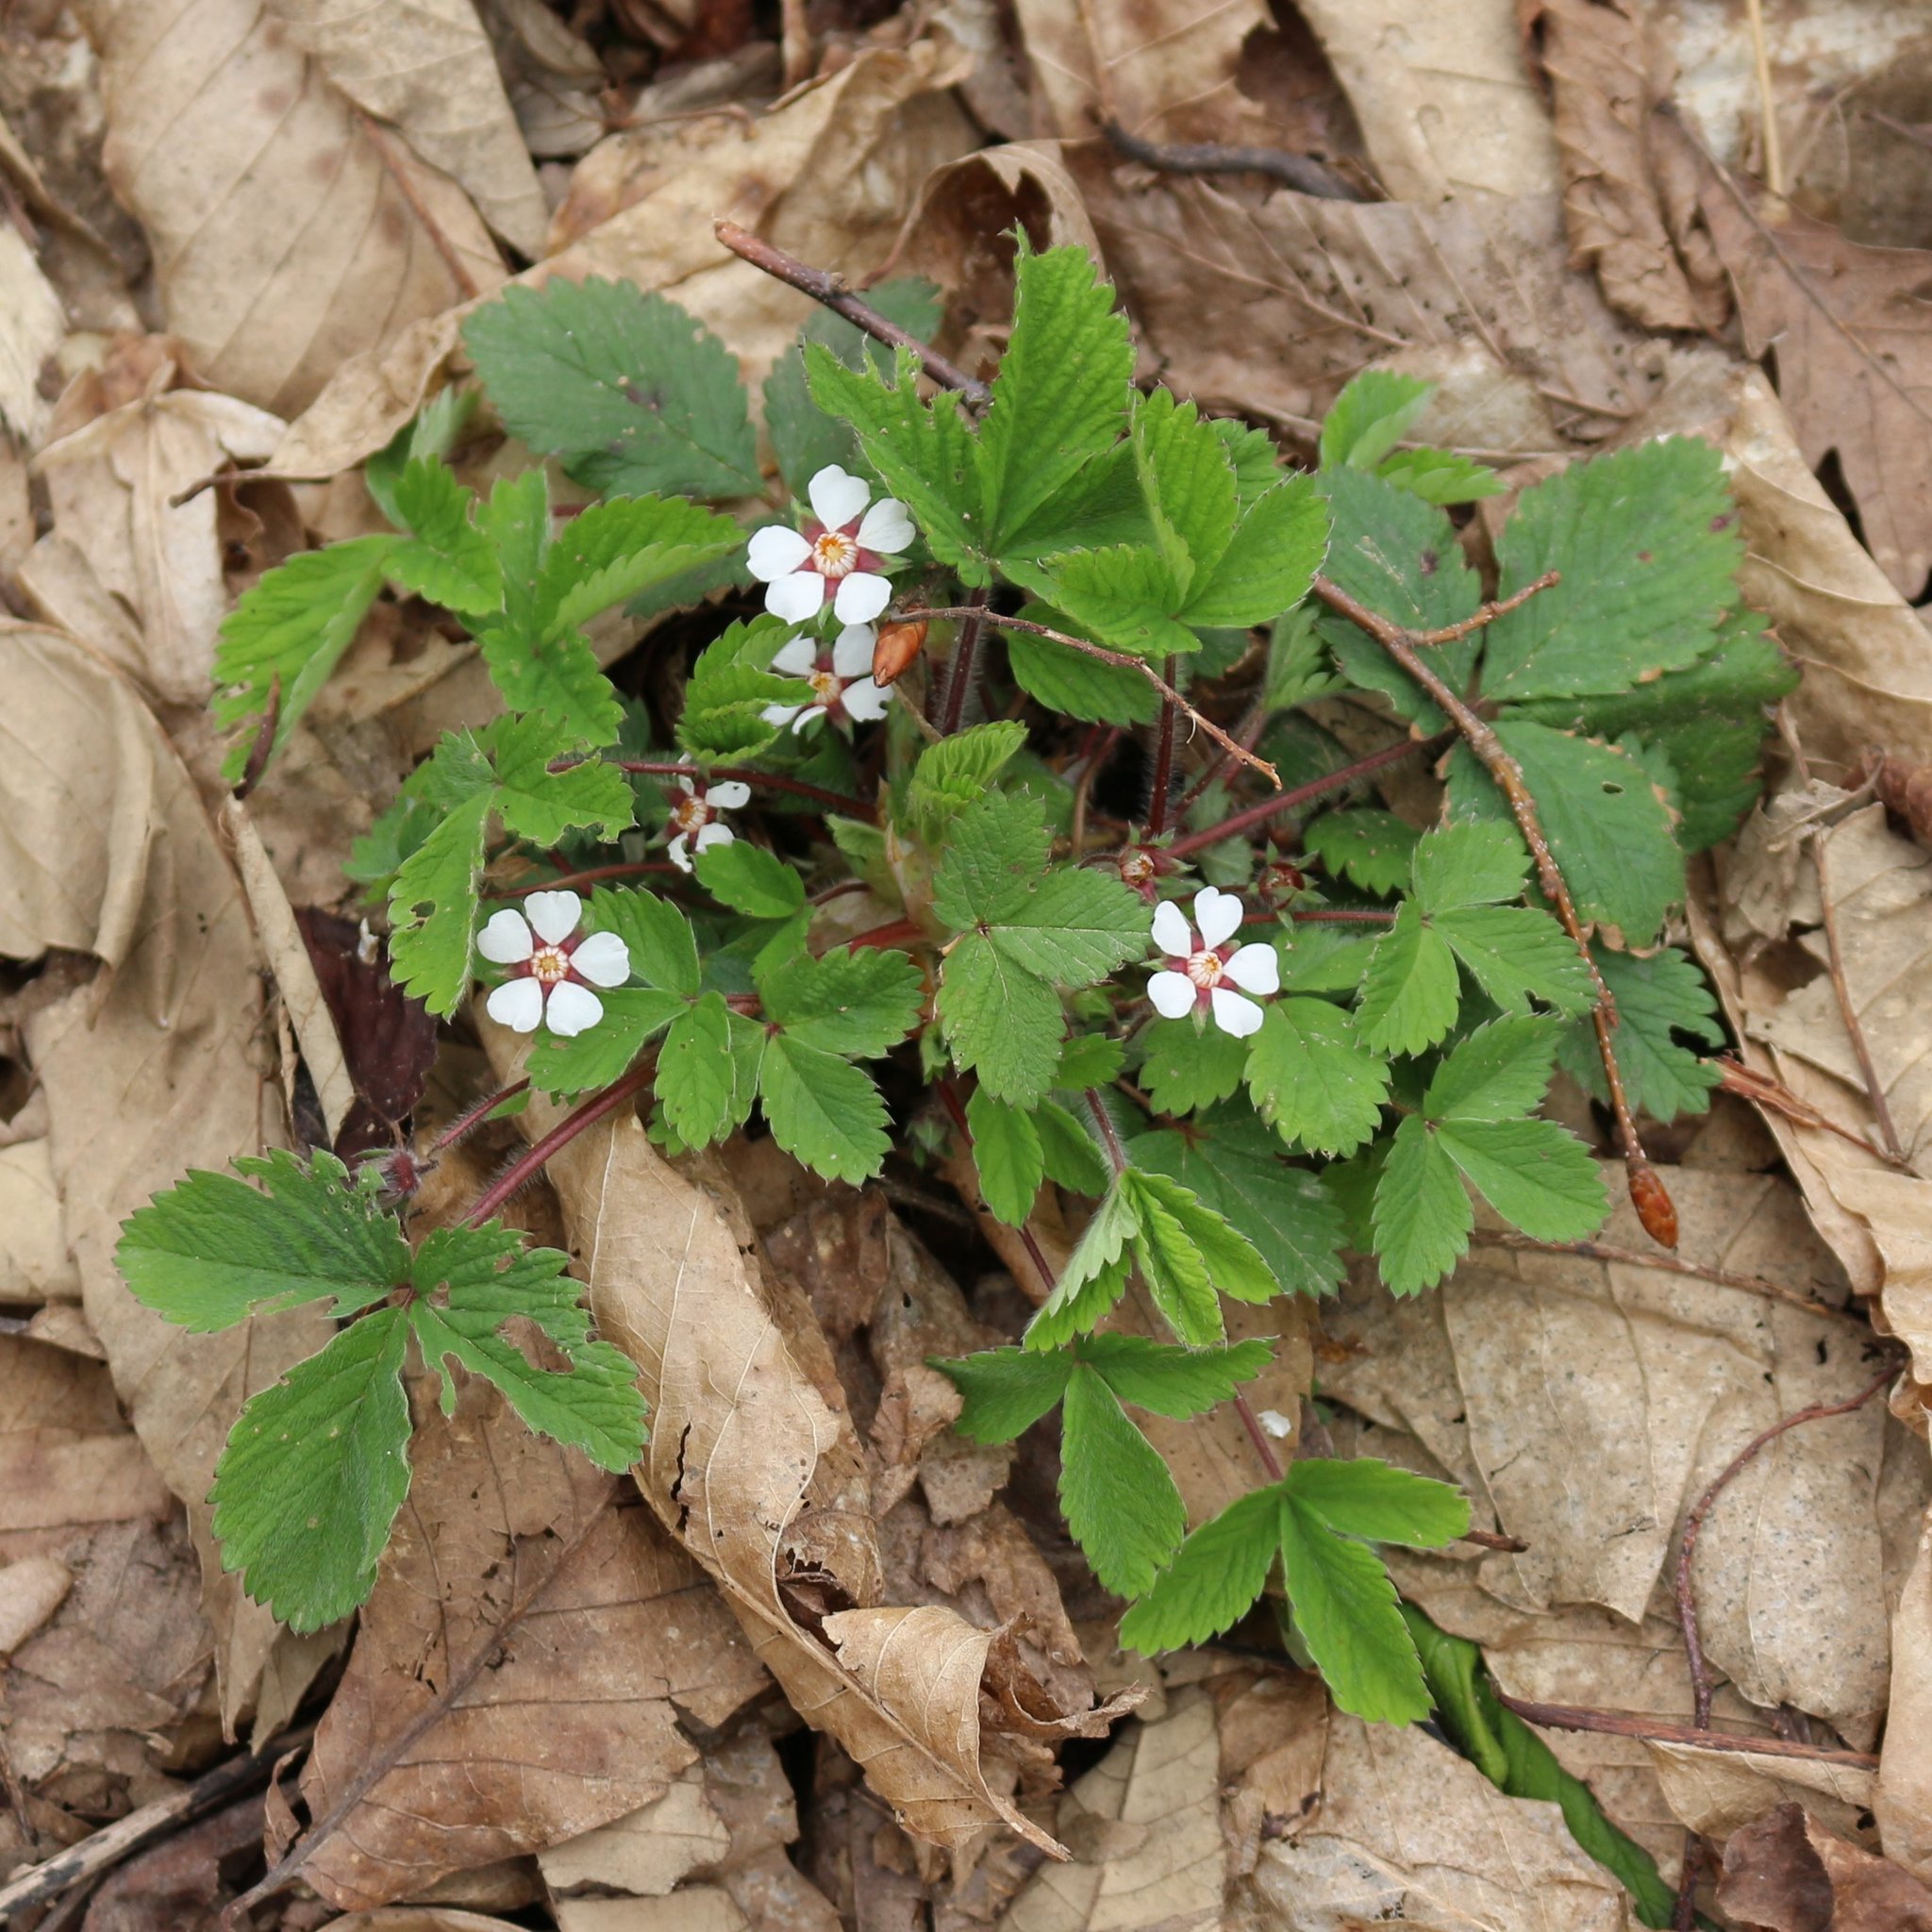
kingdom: Plantae
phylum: Tracheophyta
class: Magnoliopsida
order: Rosales
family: Rosaceae
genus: Potentilla
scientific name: Potentilla micrantha
